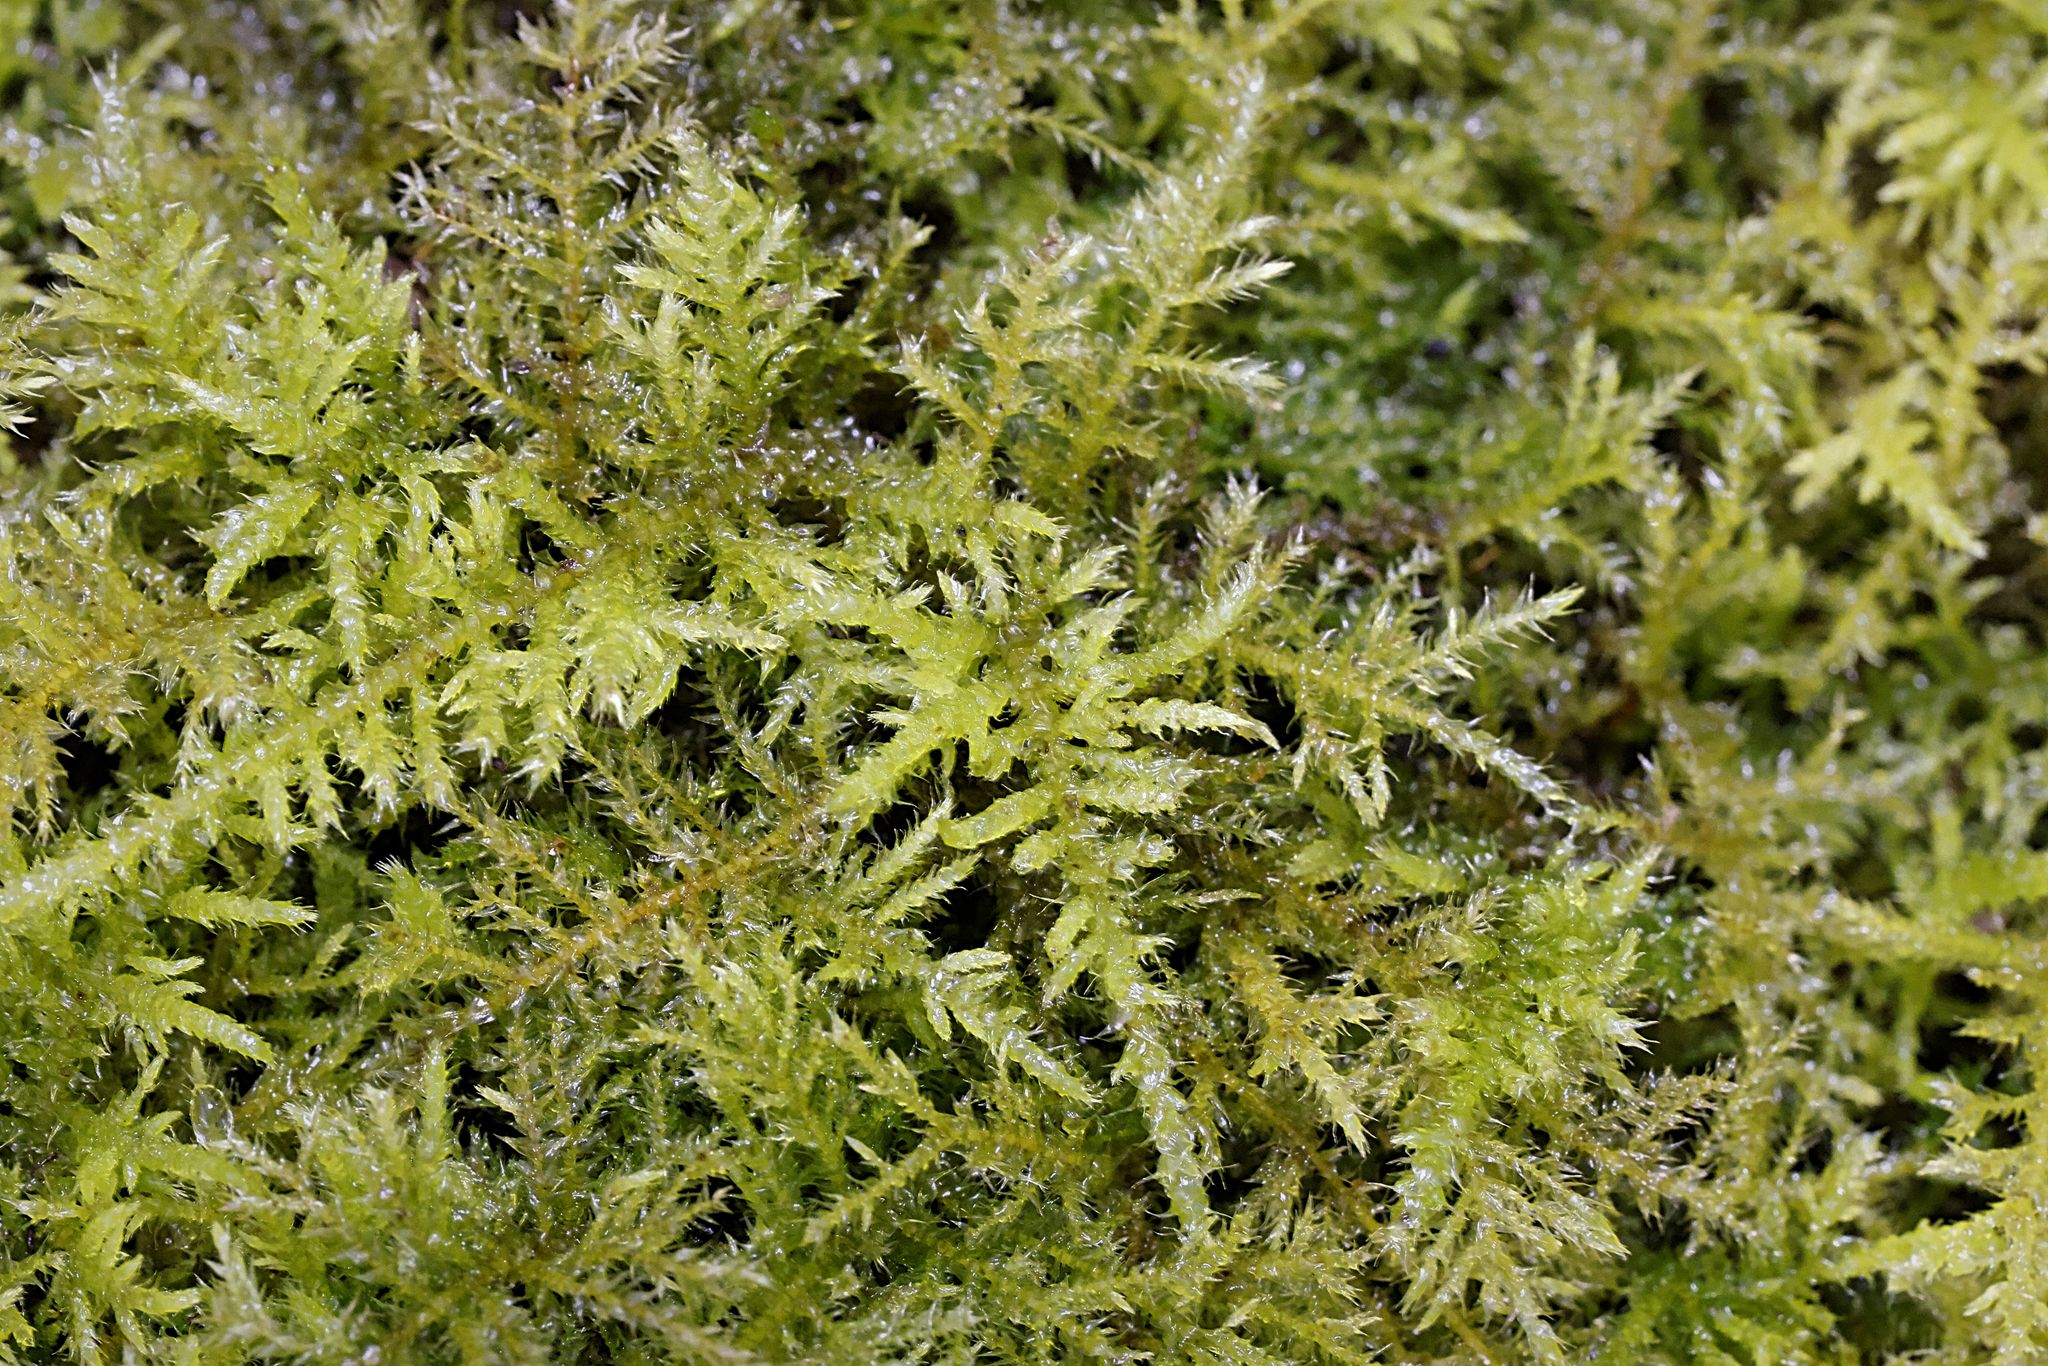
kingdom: Plantae
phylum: Bryophyta
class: Bryopsida
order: Hypnales
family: Brachytheciaceae
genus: Kindbergia
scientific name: Kindbergia praelonga
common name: Slender beaked moss
